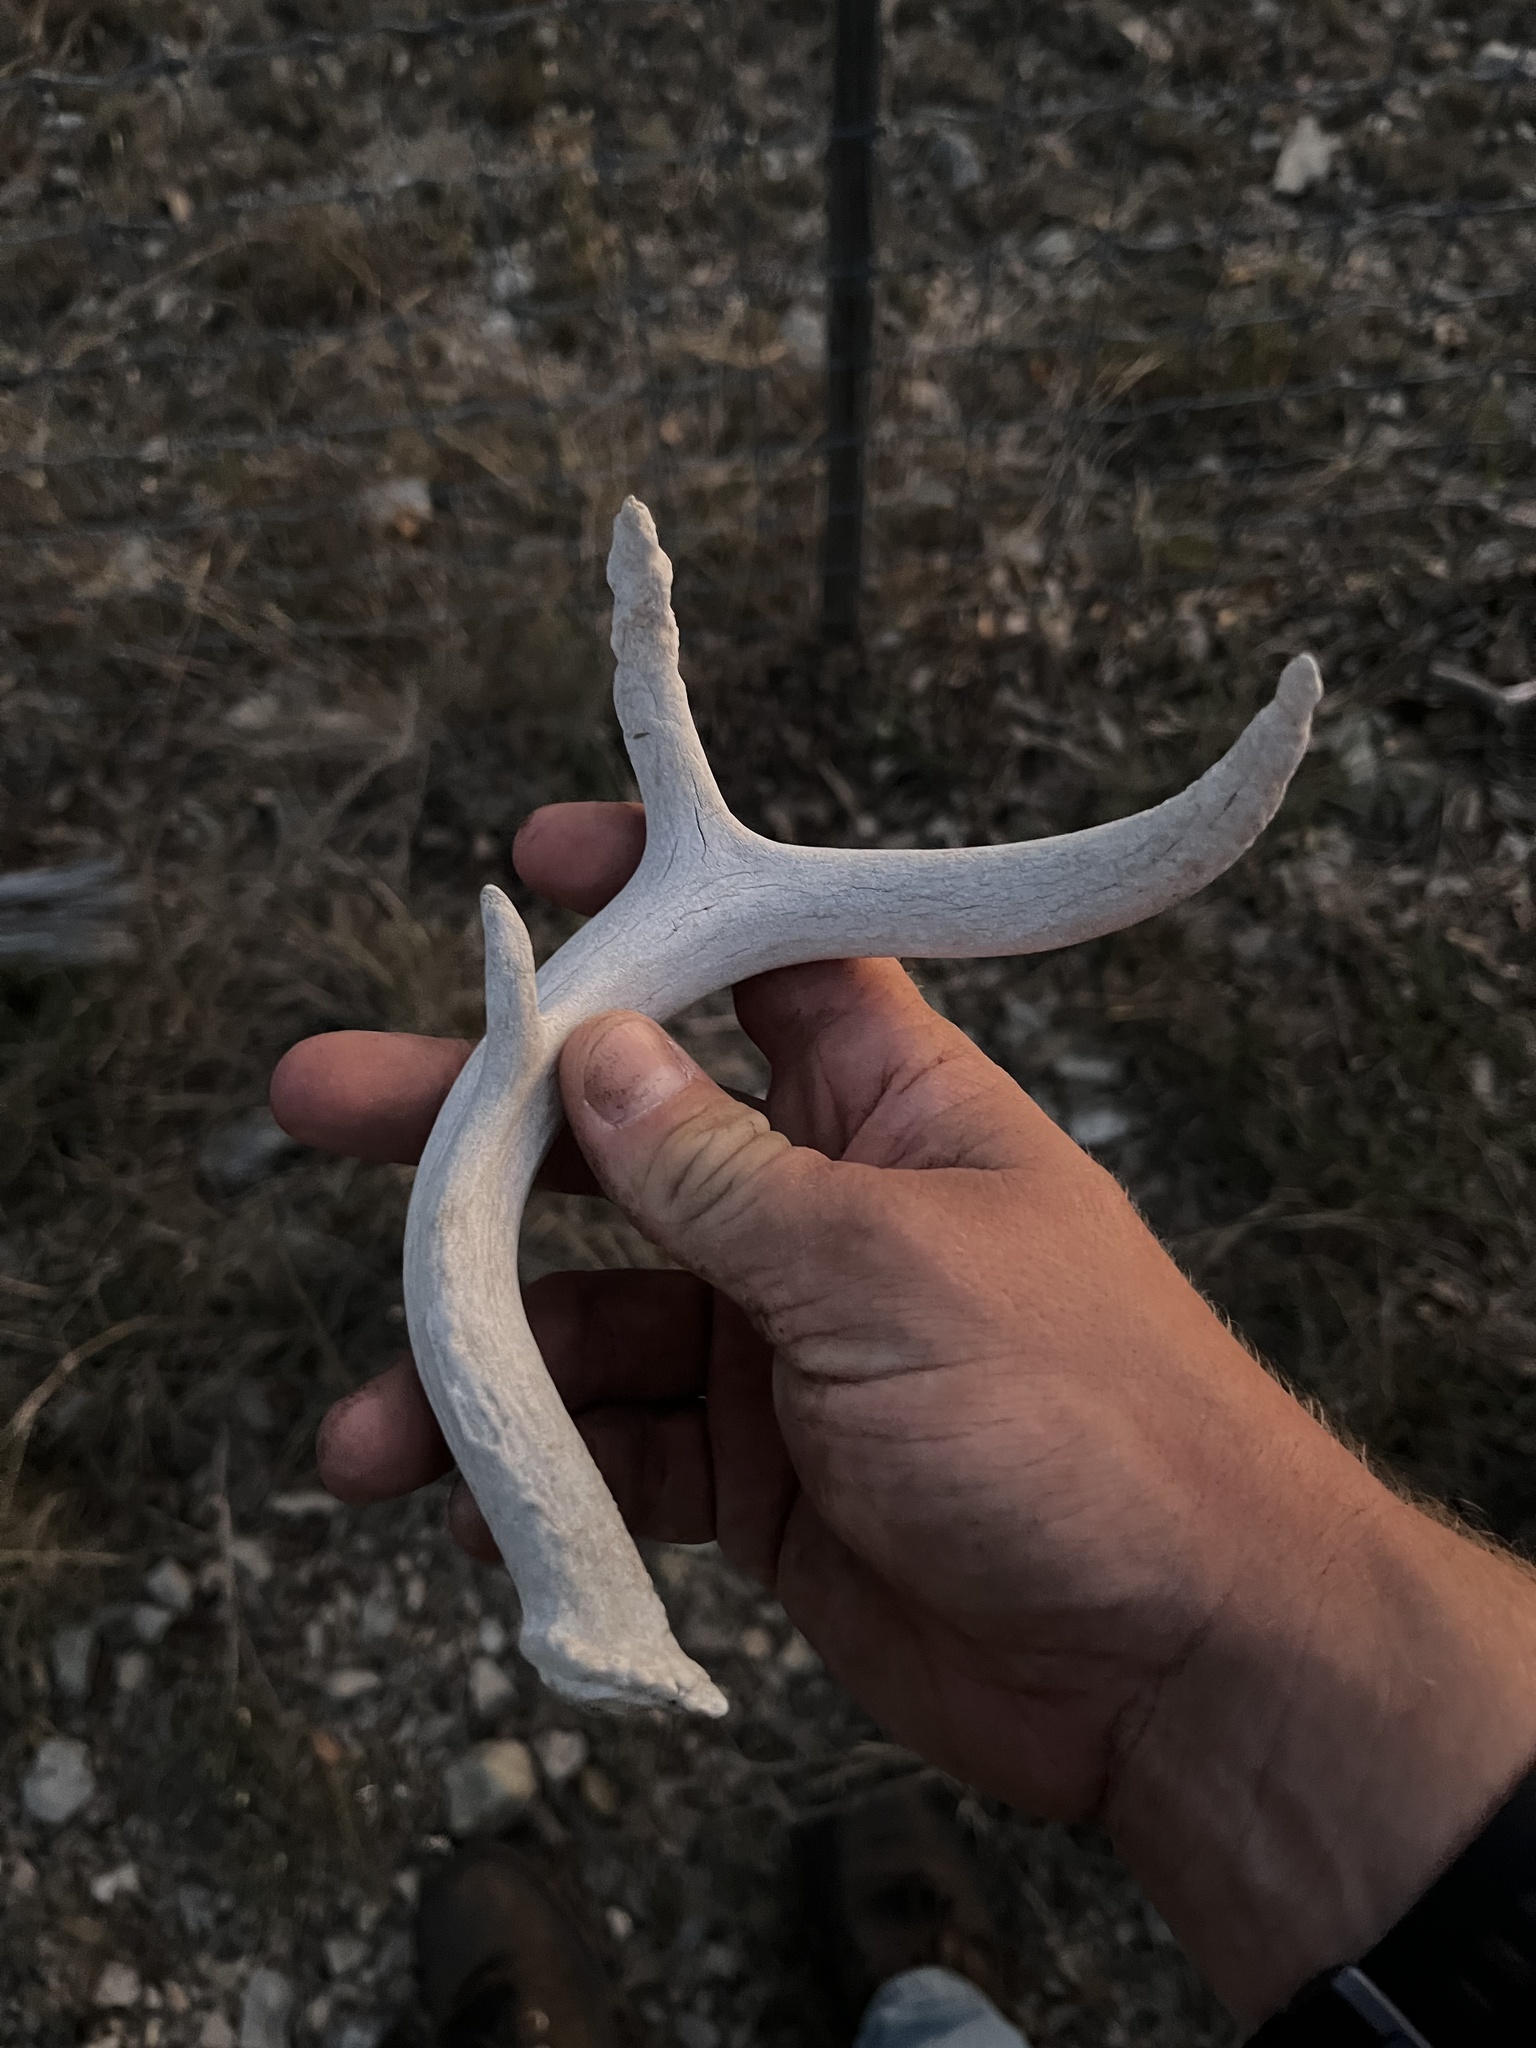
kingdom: Animalia
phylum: Chordata
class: Mammalia
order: Artiodactyla
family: Cervidae
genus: Odocoileus
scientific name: Odocoileus virginianus
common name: White-tailed deer
